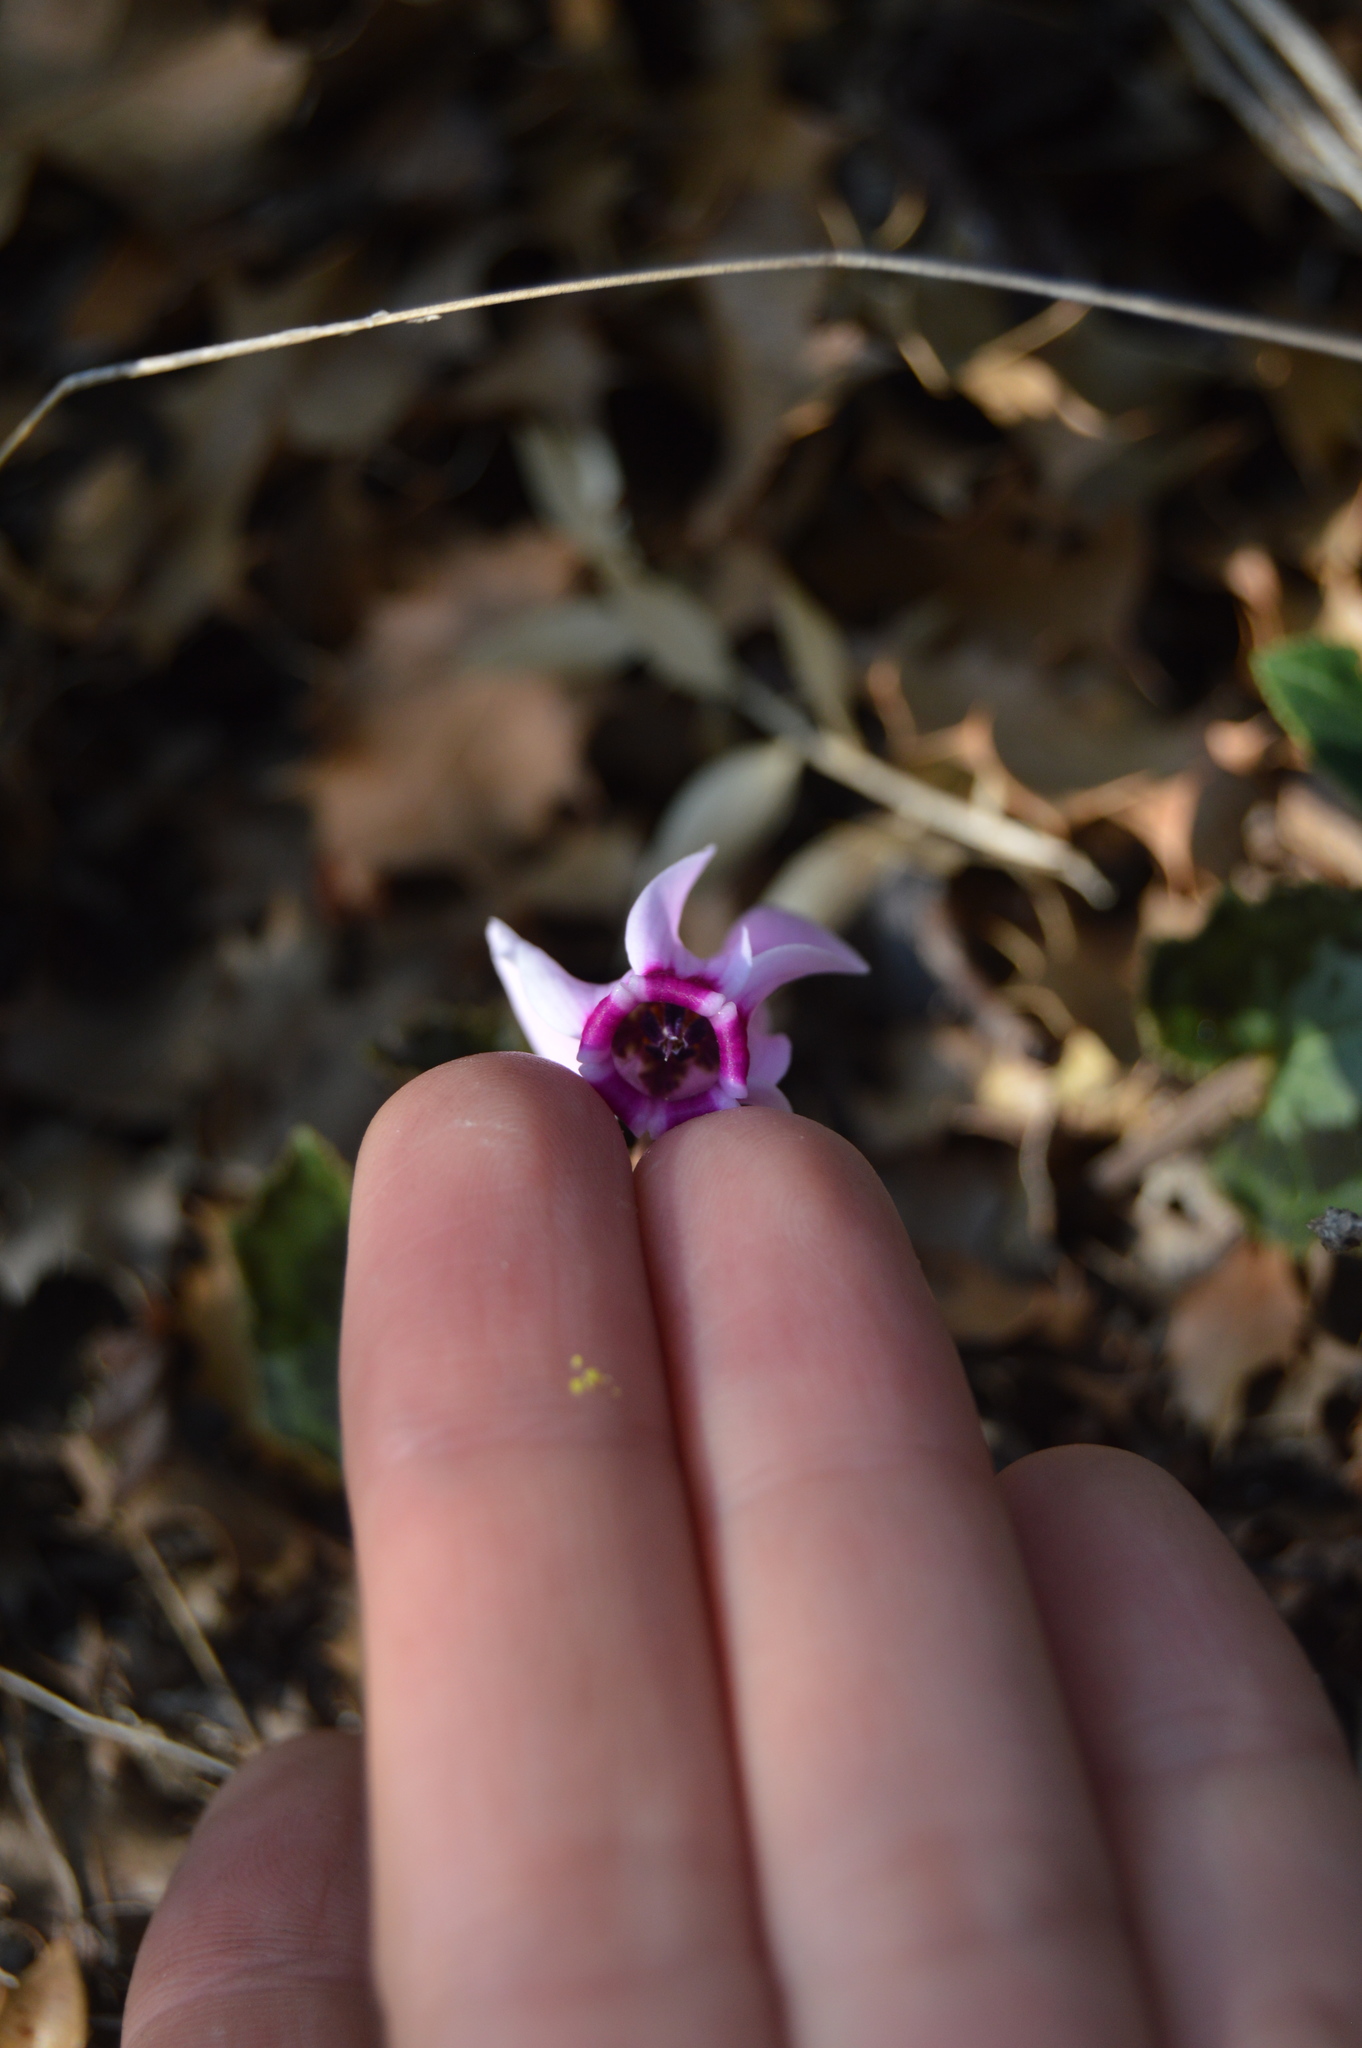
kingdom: Plantae
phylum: Tracheophyta
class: Magnoliopsida
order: Ericales
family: Primulaceae
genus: Cyclamen
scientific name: Cyclamen graecum
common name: Greek cyclamen
